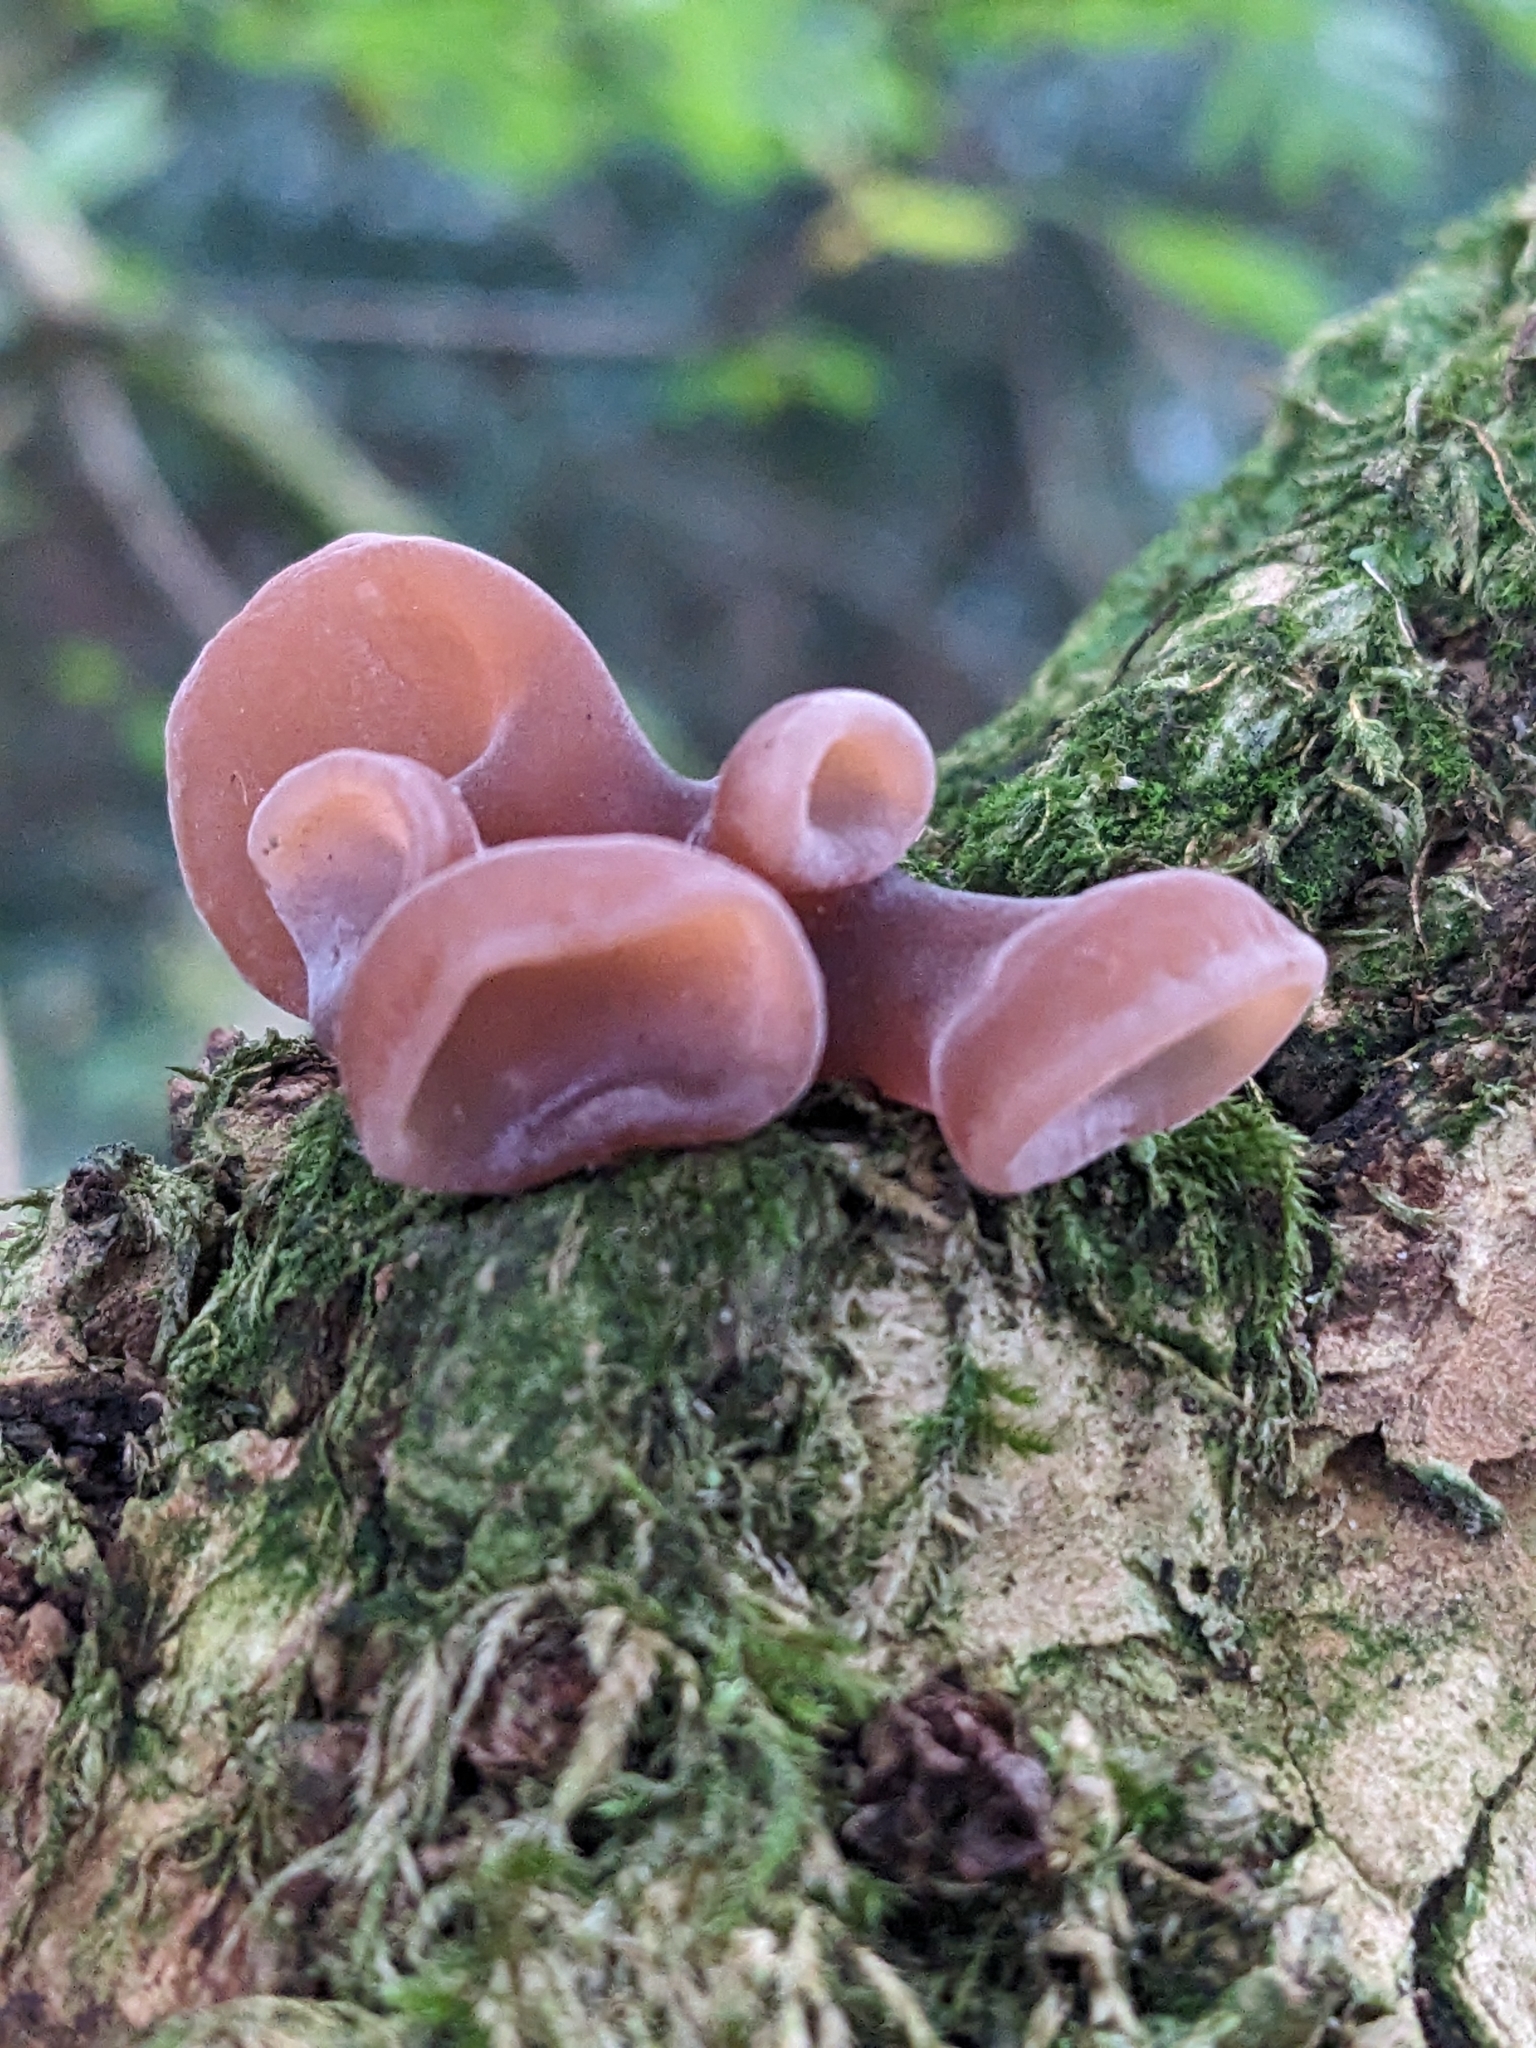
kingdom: Fungi
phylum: Basidiomycota
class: Agaricomycetes
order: Auriculariales
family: Auriculariaceae
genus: Auricularia
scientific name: Auricularia auricula-judae
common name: Jelly ear
